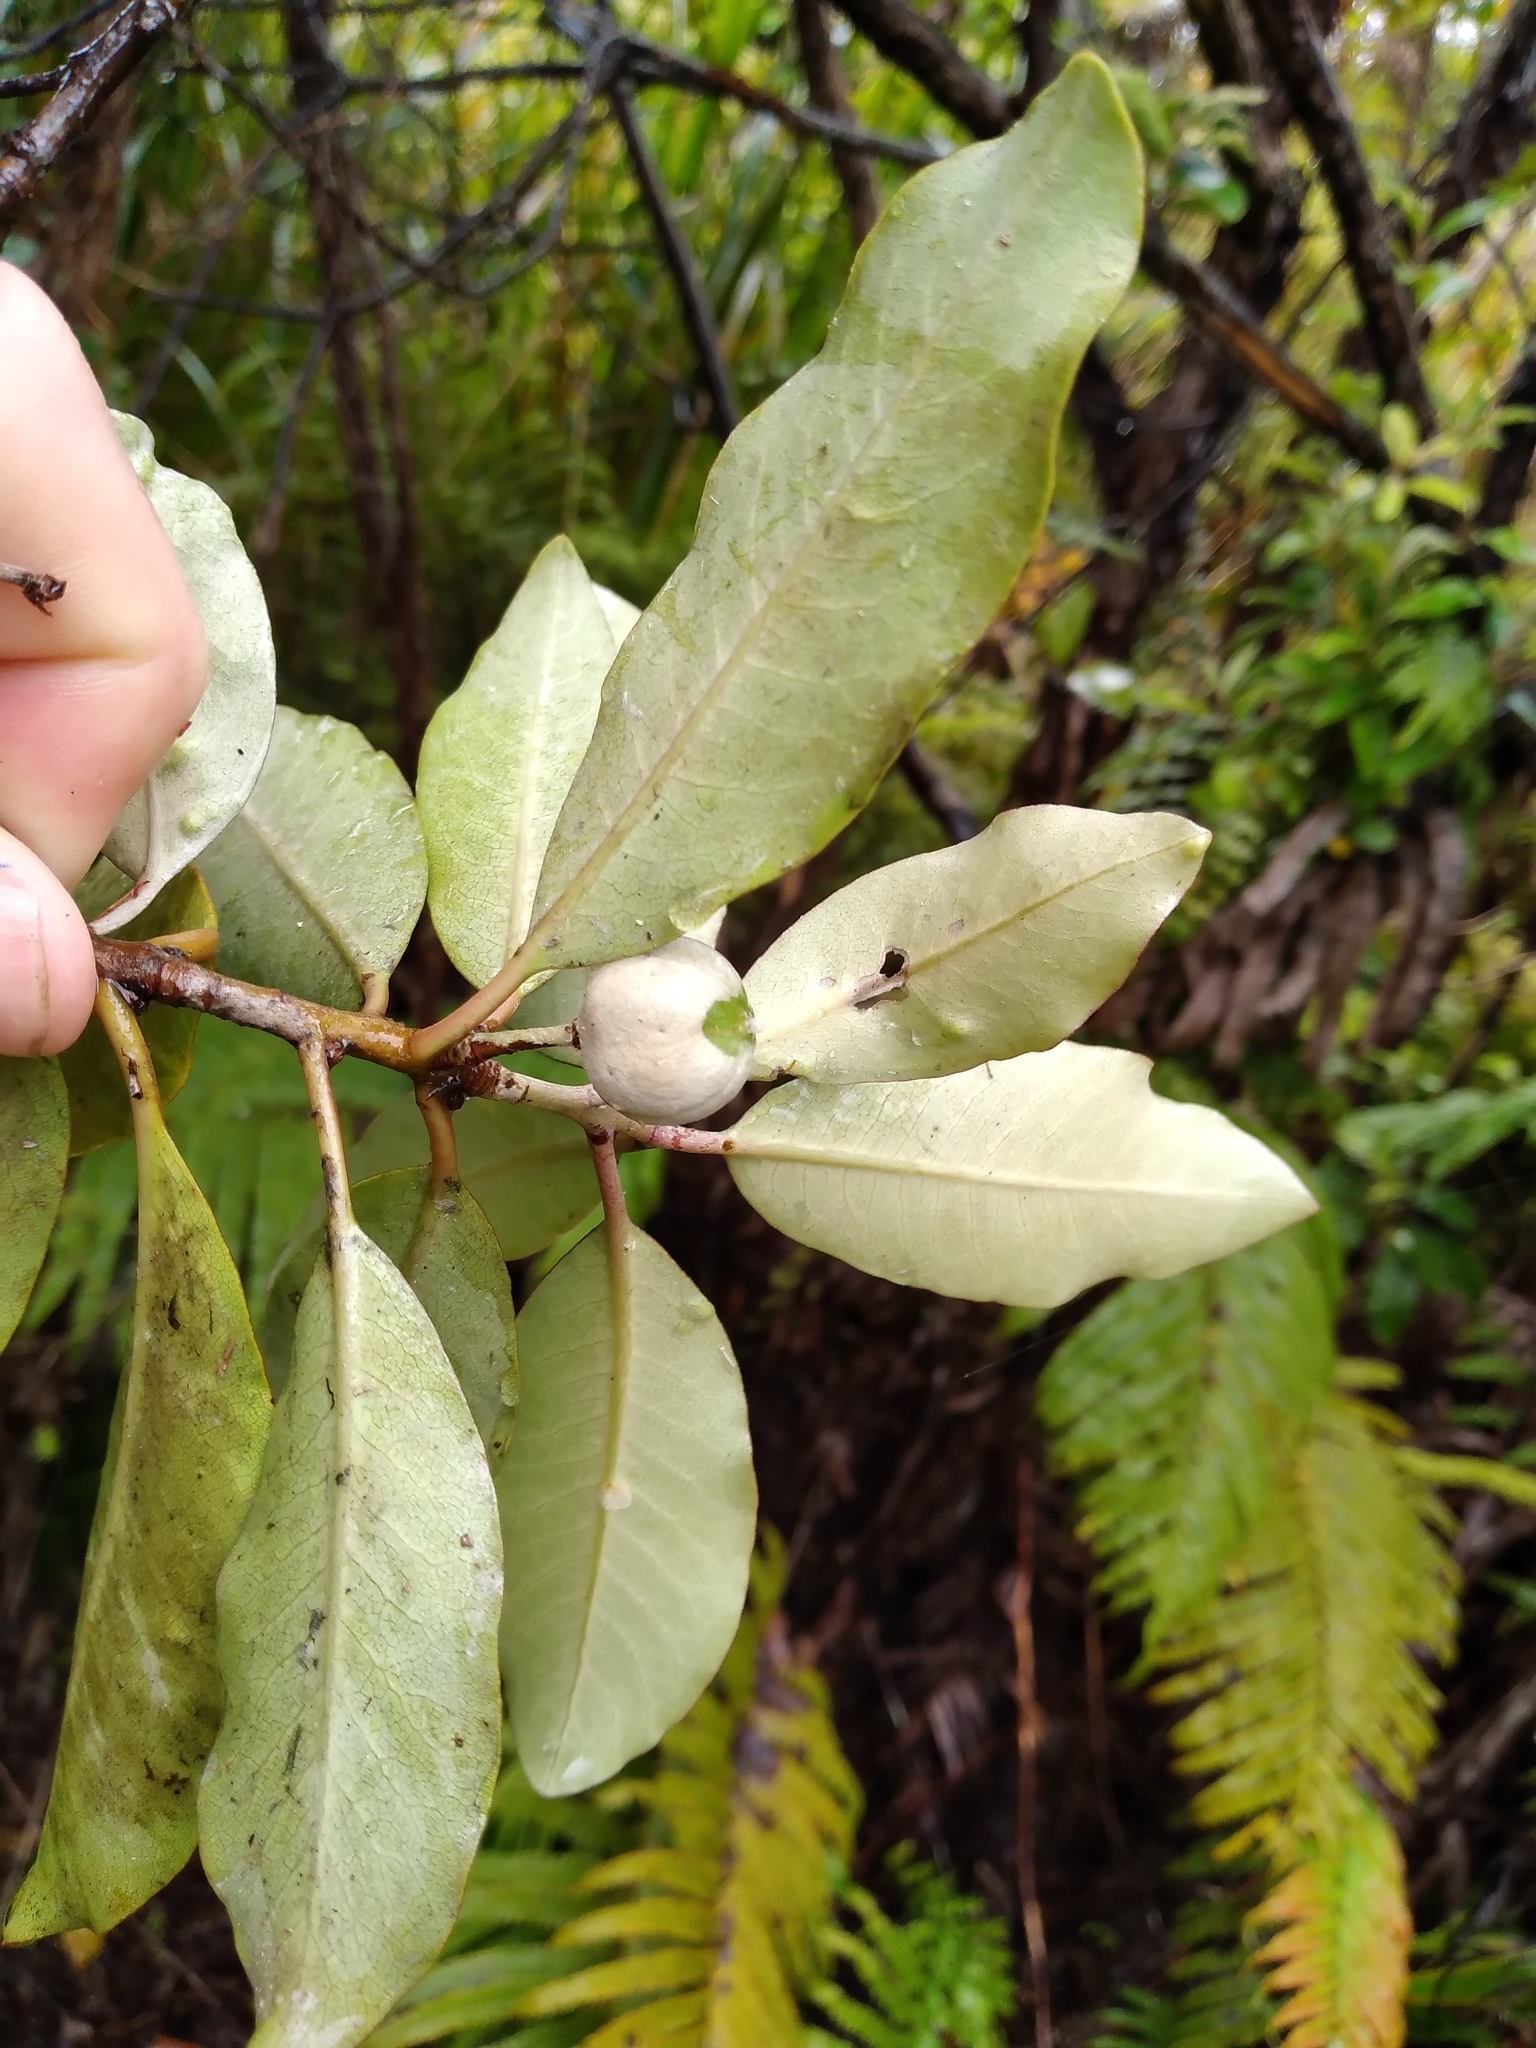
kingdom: Plantae
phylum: Tracheophyta
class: Magnoliopsida
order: Apiales
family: Pittosporaceae
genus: Pittosporum
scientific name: Pittosporum huttonianum
